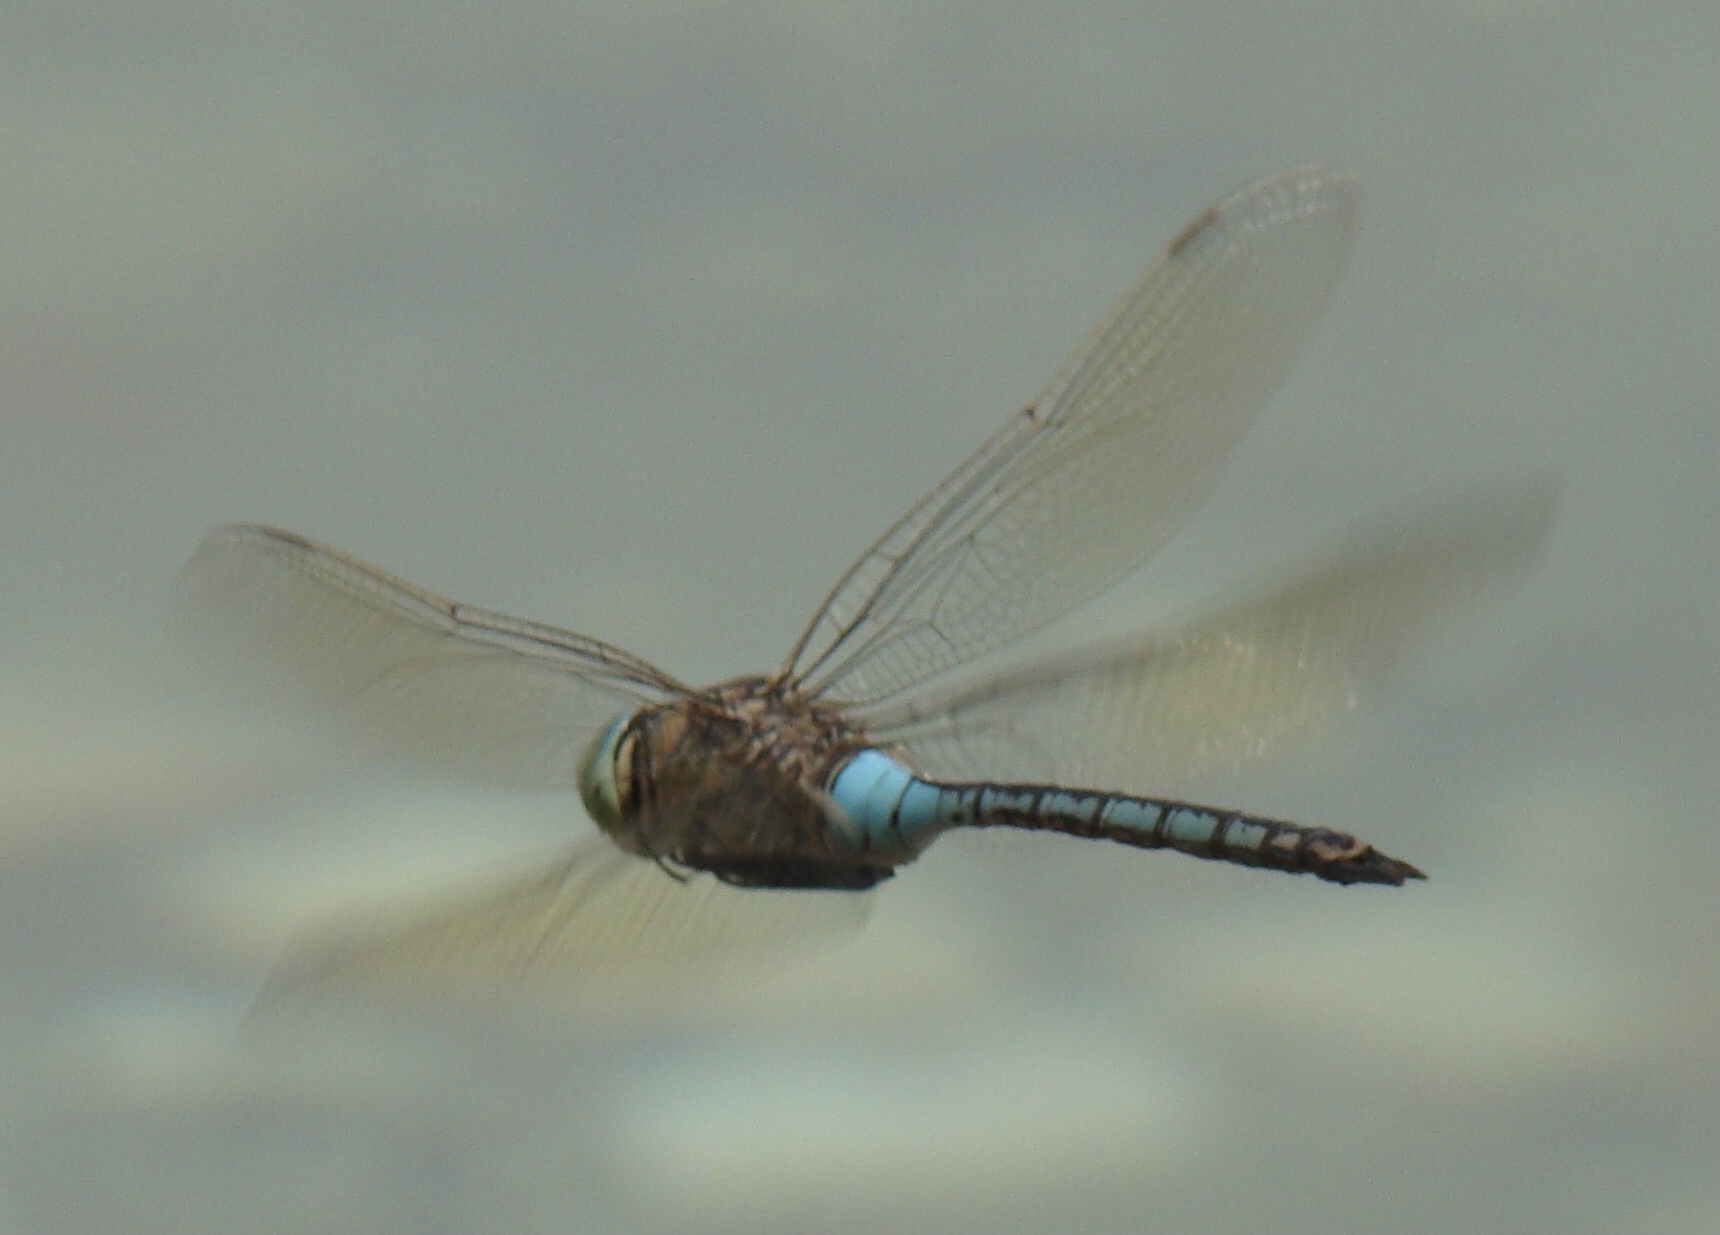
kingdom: Animalia
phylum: Arthropoda
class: Insecta
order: Odonata
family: Aeshnidae
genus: Anax
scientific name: Anax parthenope
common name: Lesser emperor
